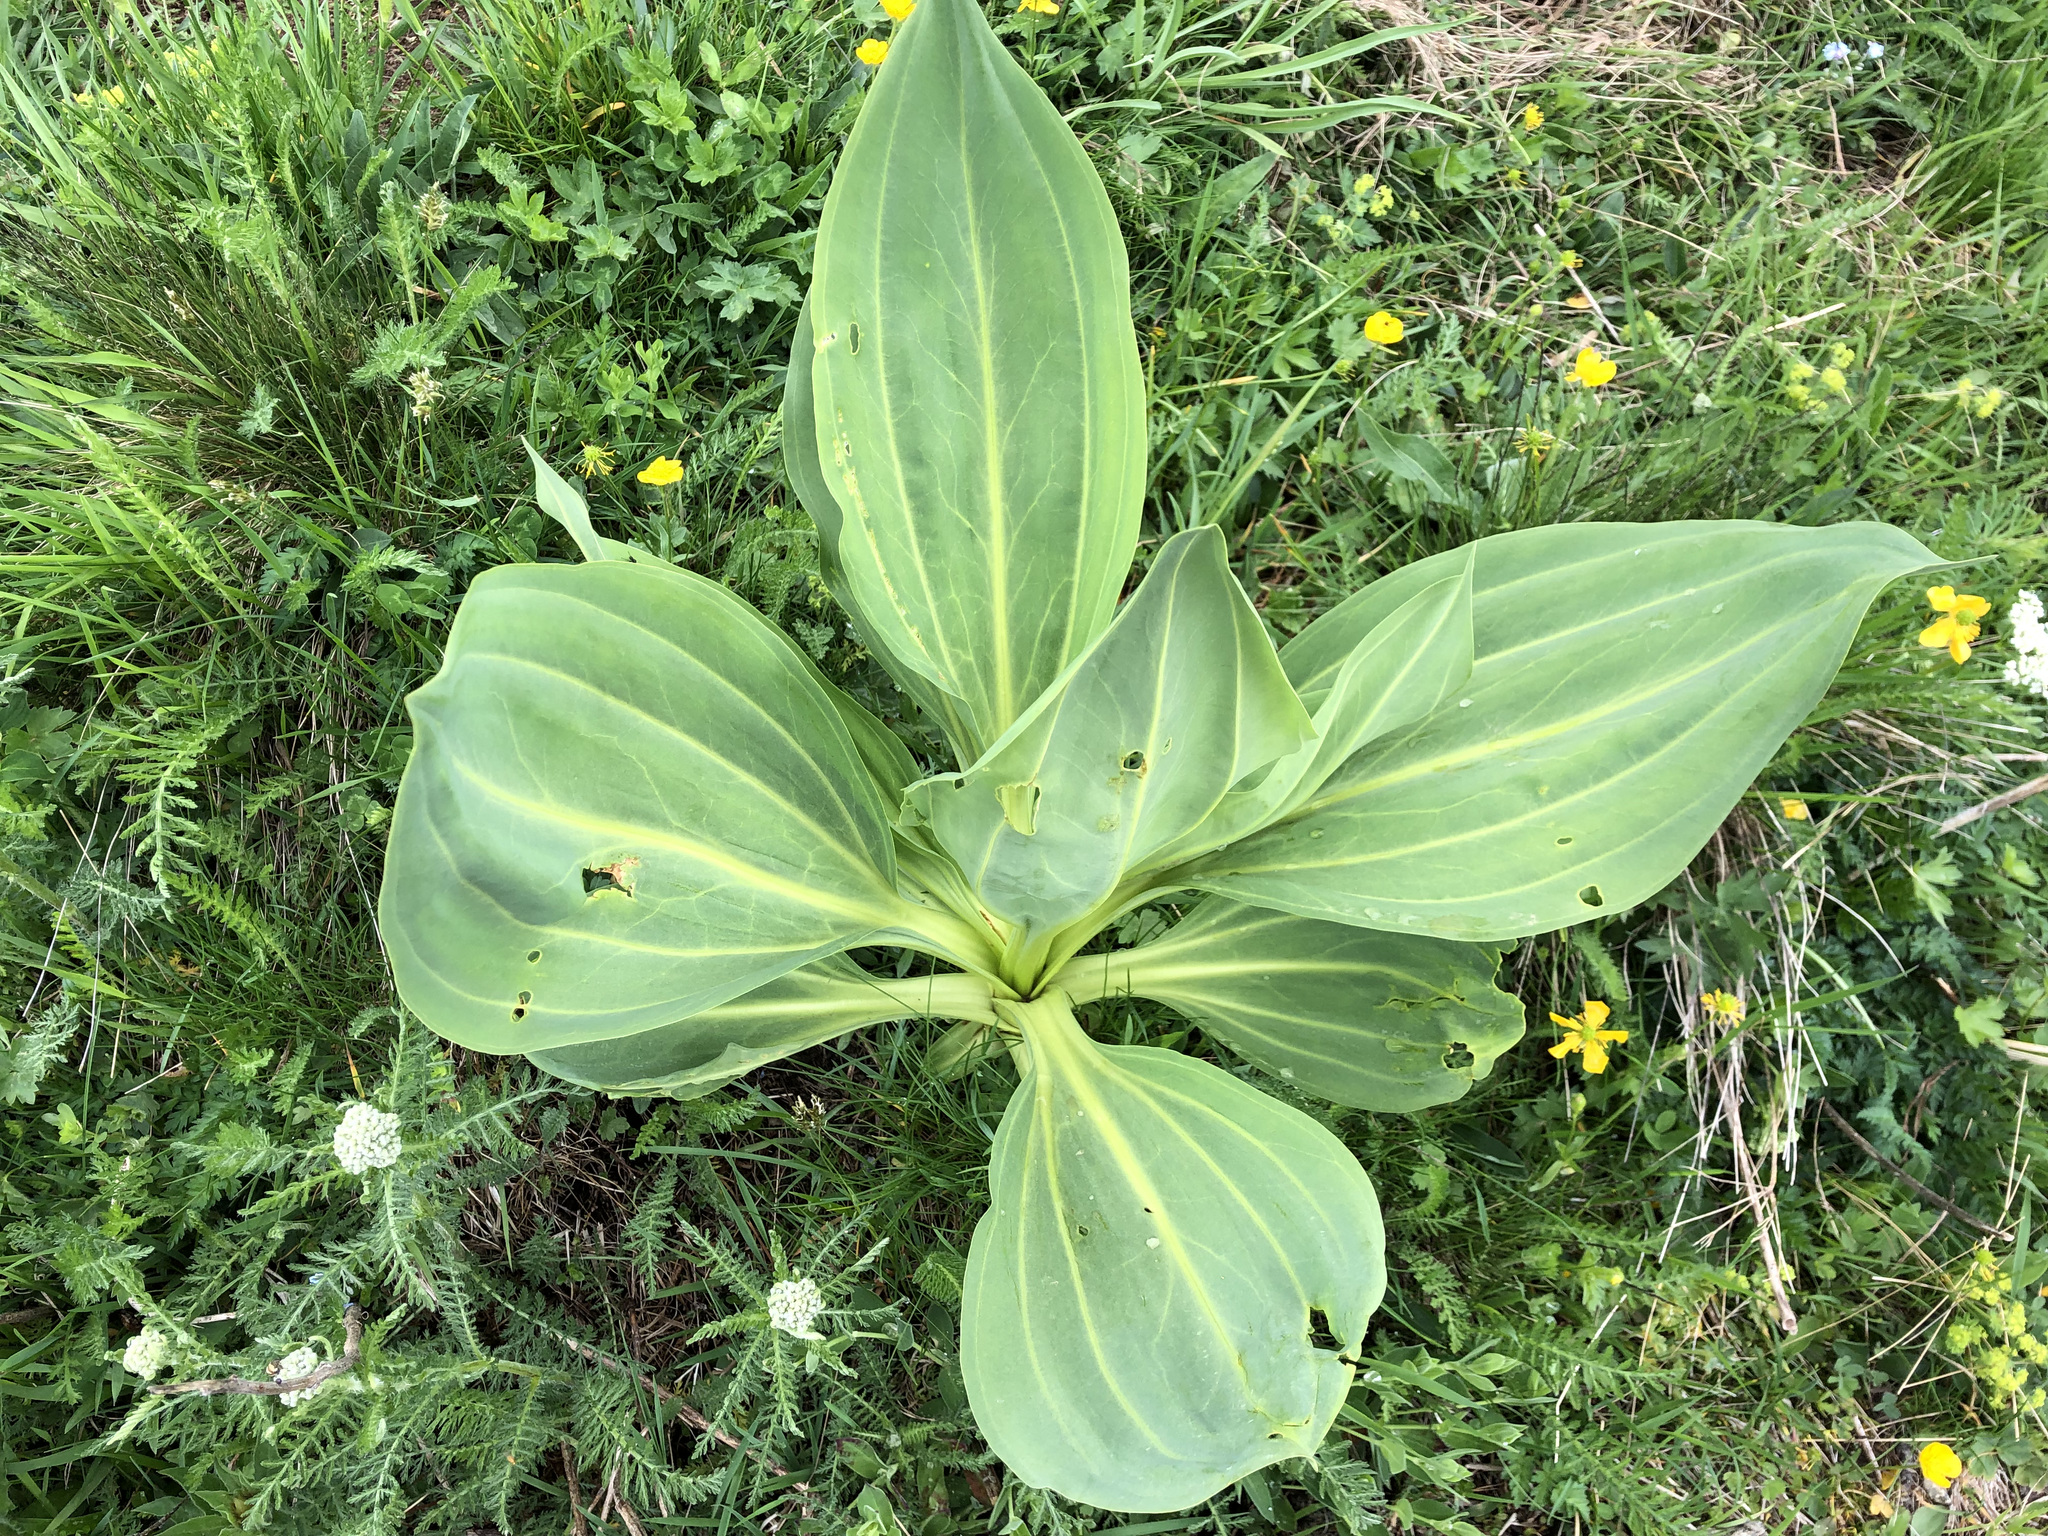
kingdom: Plantae
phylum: Tracheophyta
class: Magnoliopsida
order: Gentianales
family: Gentianaceae
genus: Gentiana
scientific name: Gentiana lutea
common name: Great yellow gentian
